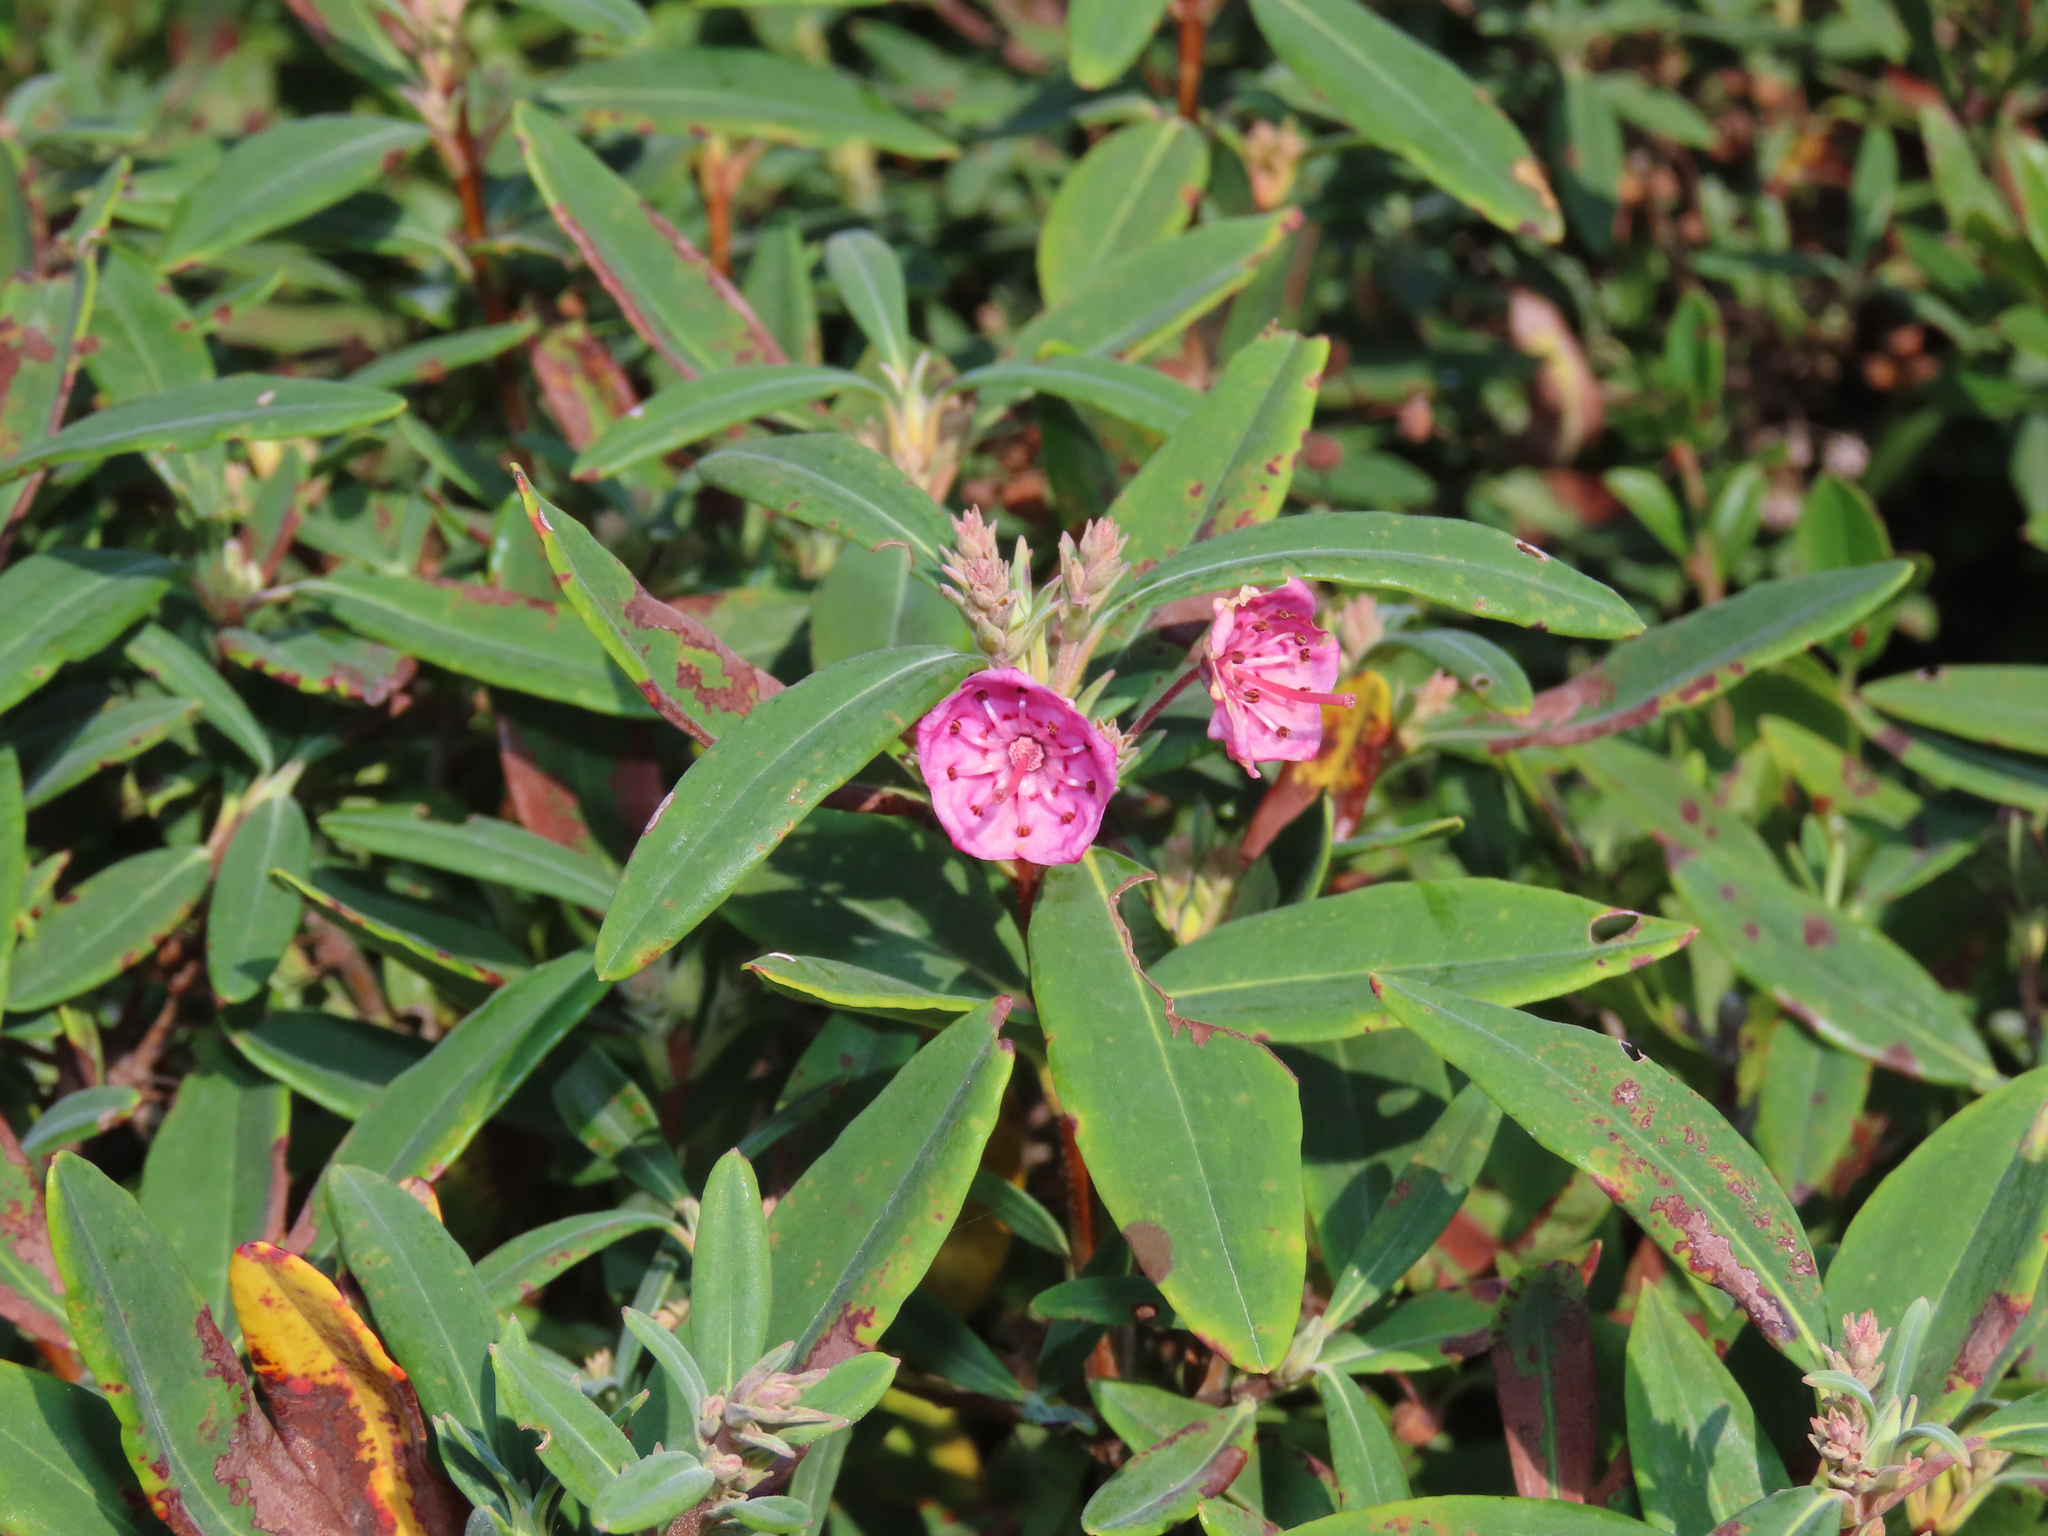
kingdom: Plantae
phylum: Tracheophyta
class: Magnoliopsida
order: Ericales
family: Ericaceae
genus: Kalmia
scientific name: Kalmia angustifolia
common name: Sheep-laurel
